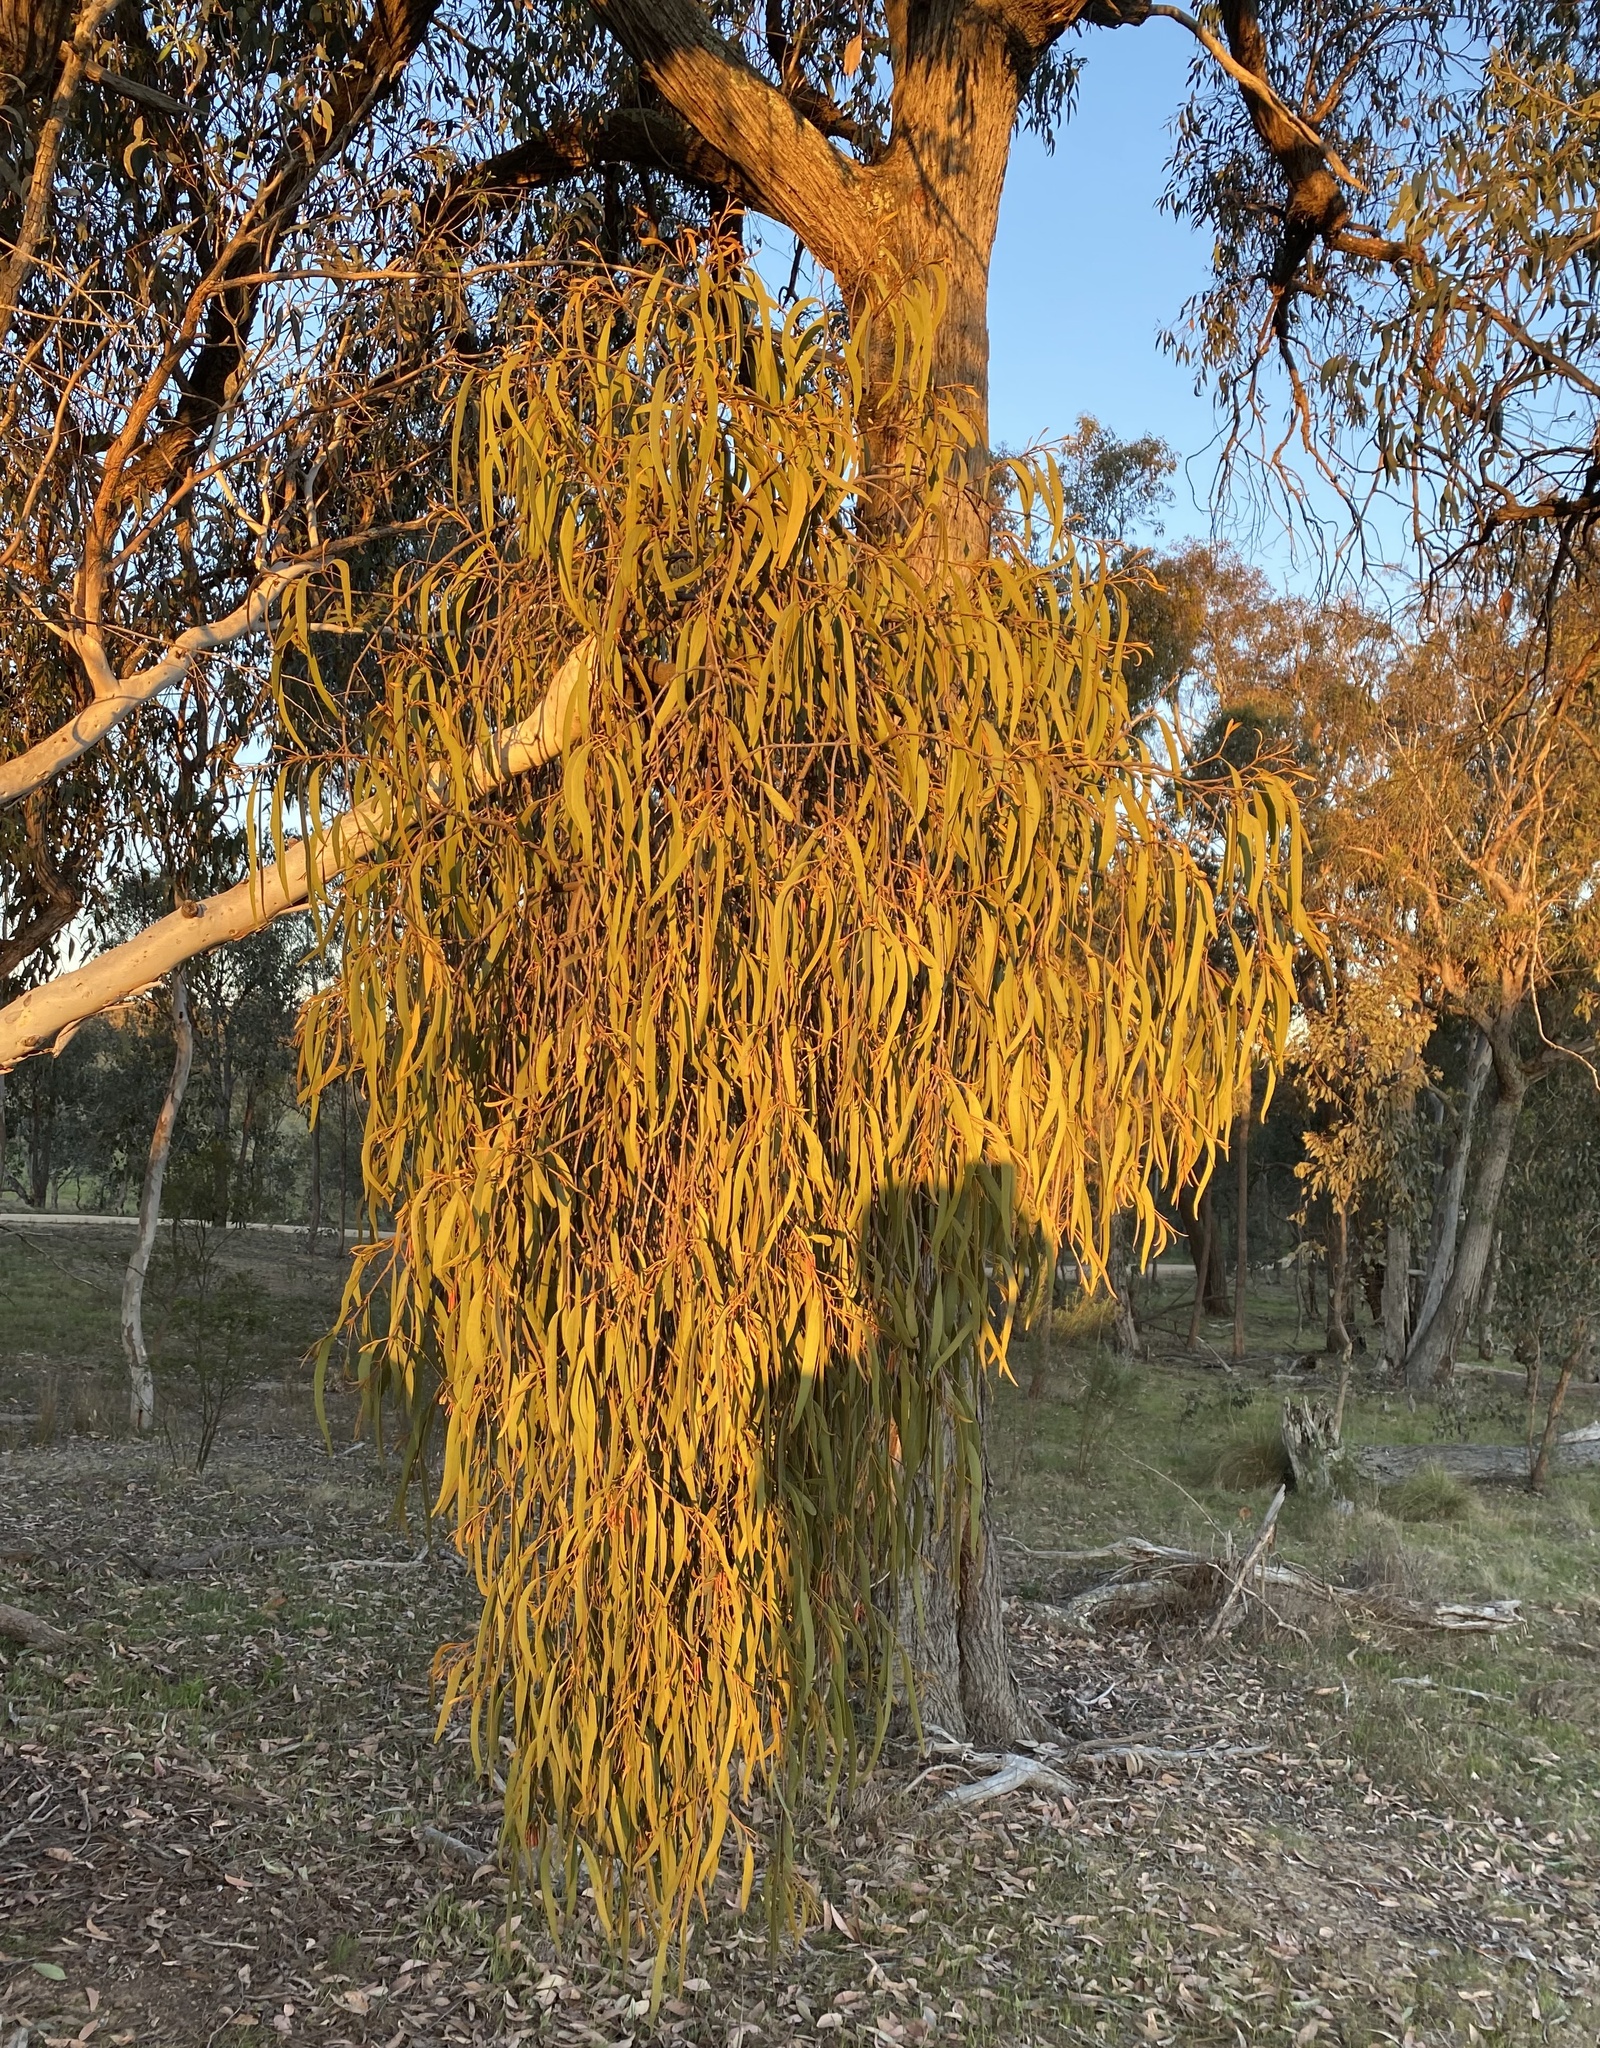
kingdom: Plantae
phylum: Tracheophyta
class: Magnoliopsida
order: Santalales
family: Loranthaceae
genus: Amyema
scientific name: Amyema pendula
